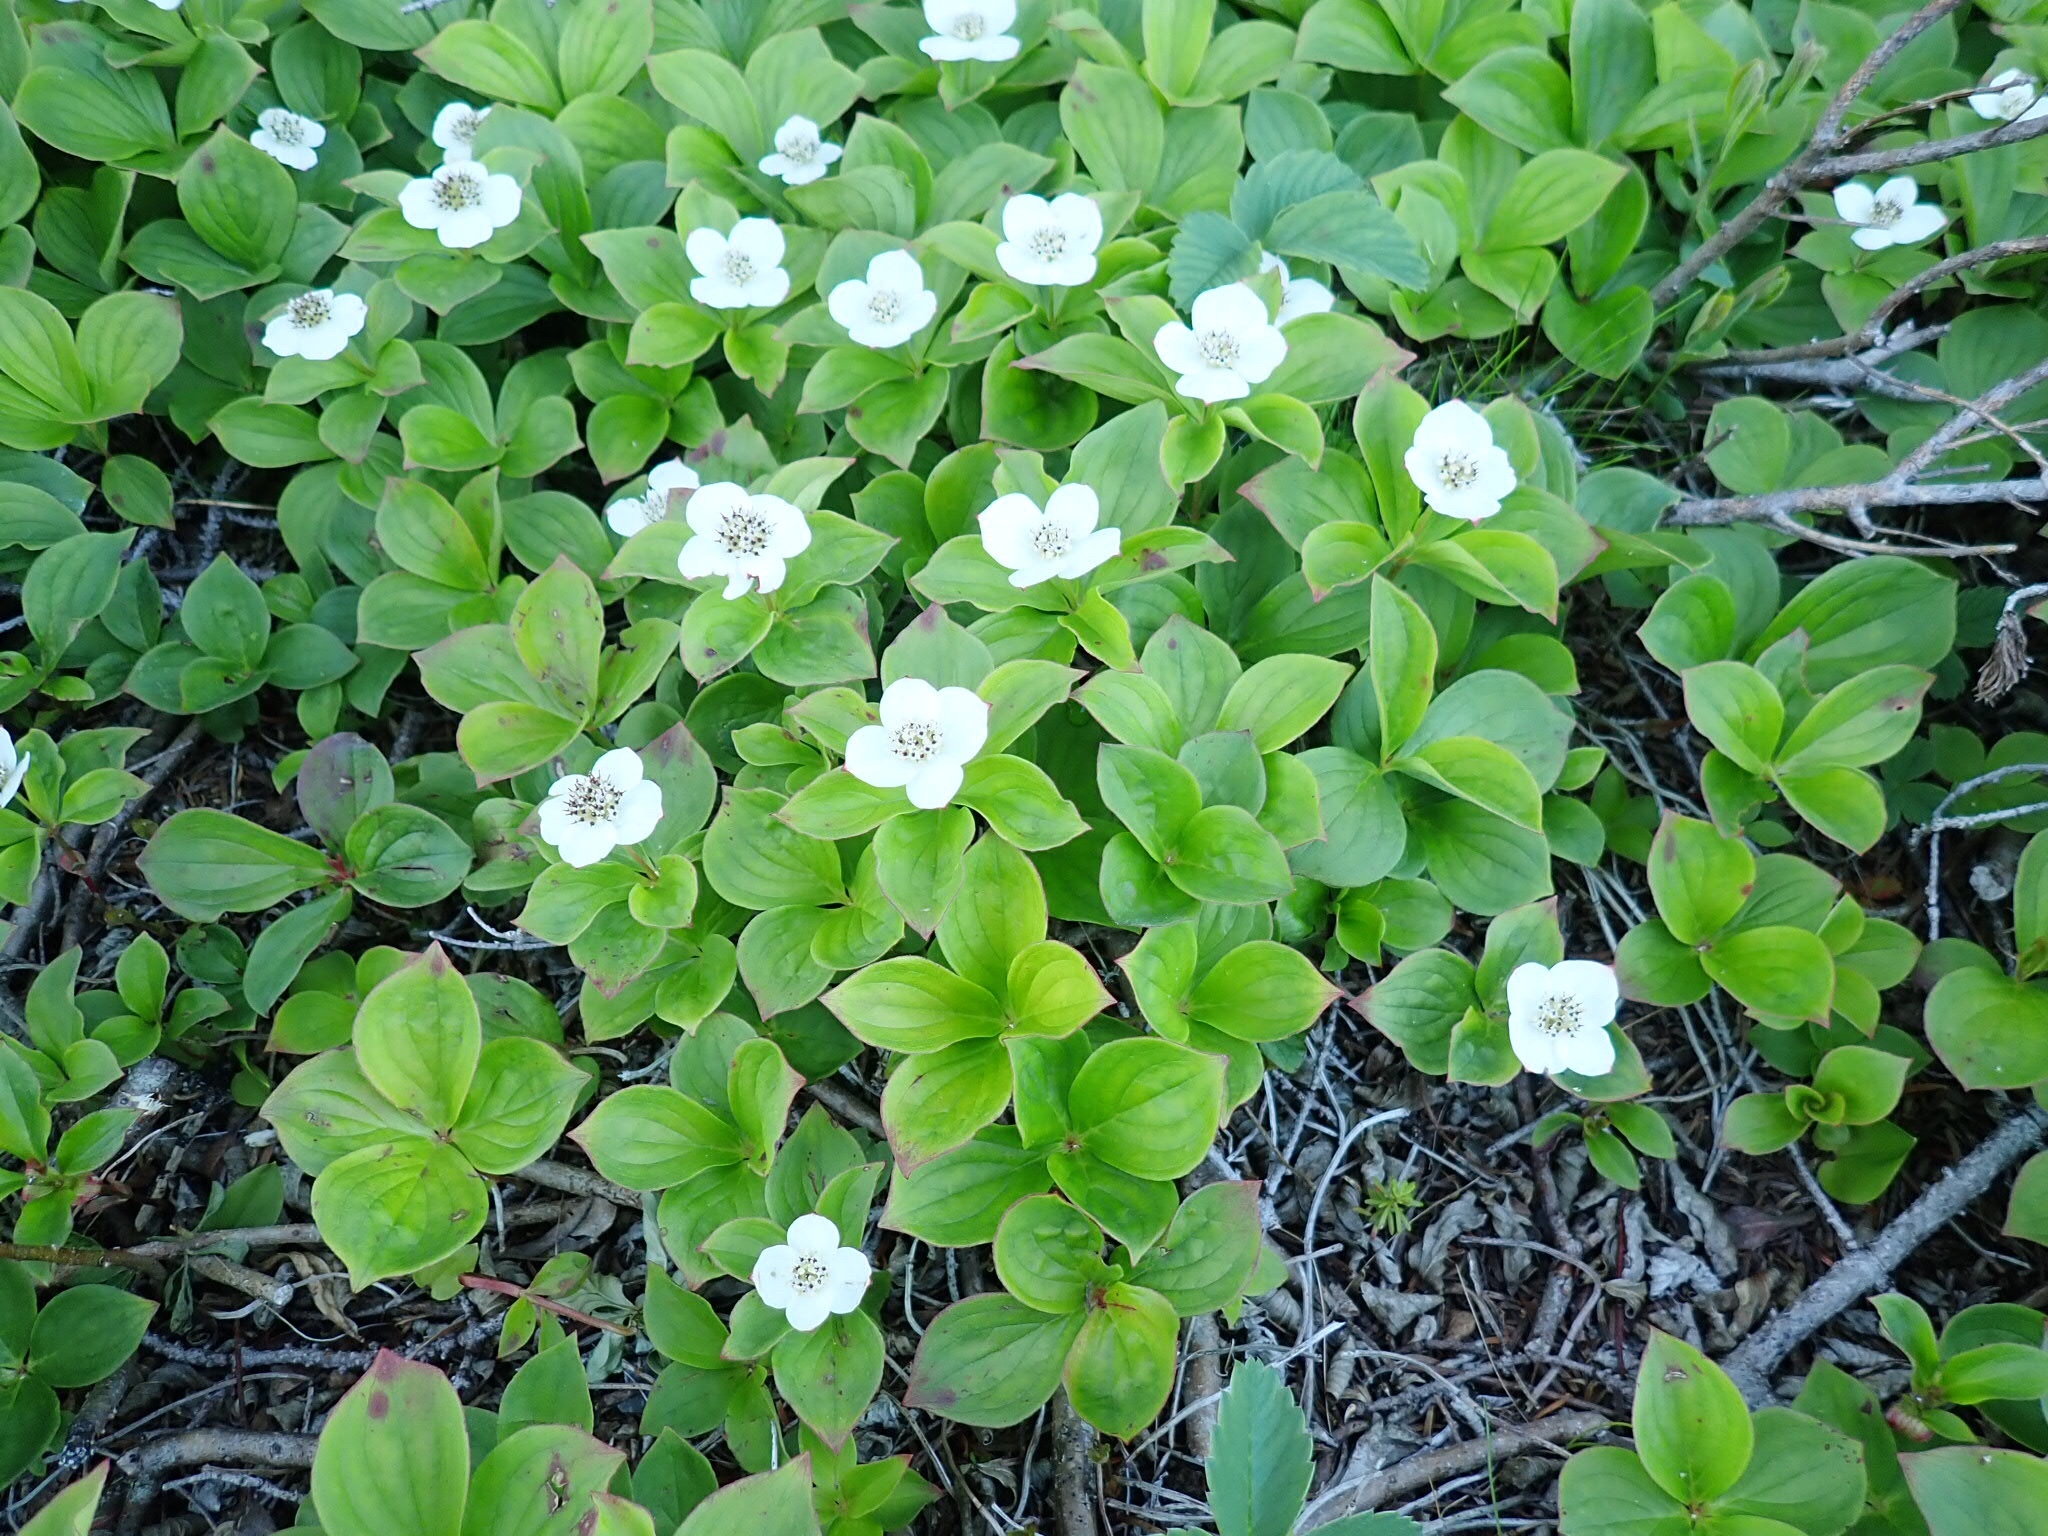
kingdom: Plantae
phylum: Tracheophyta
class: Magnoliopsida
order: Cornales
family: Cornaceae
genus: Cornus
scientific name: Cornus canadensis
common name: Creeping dogwood
